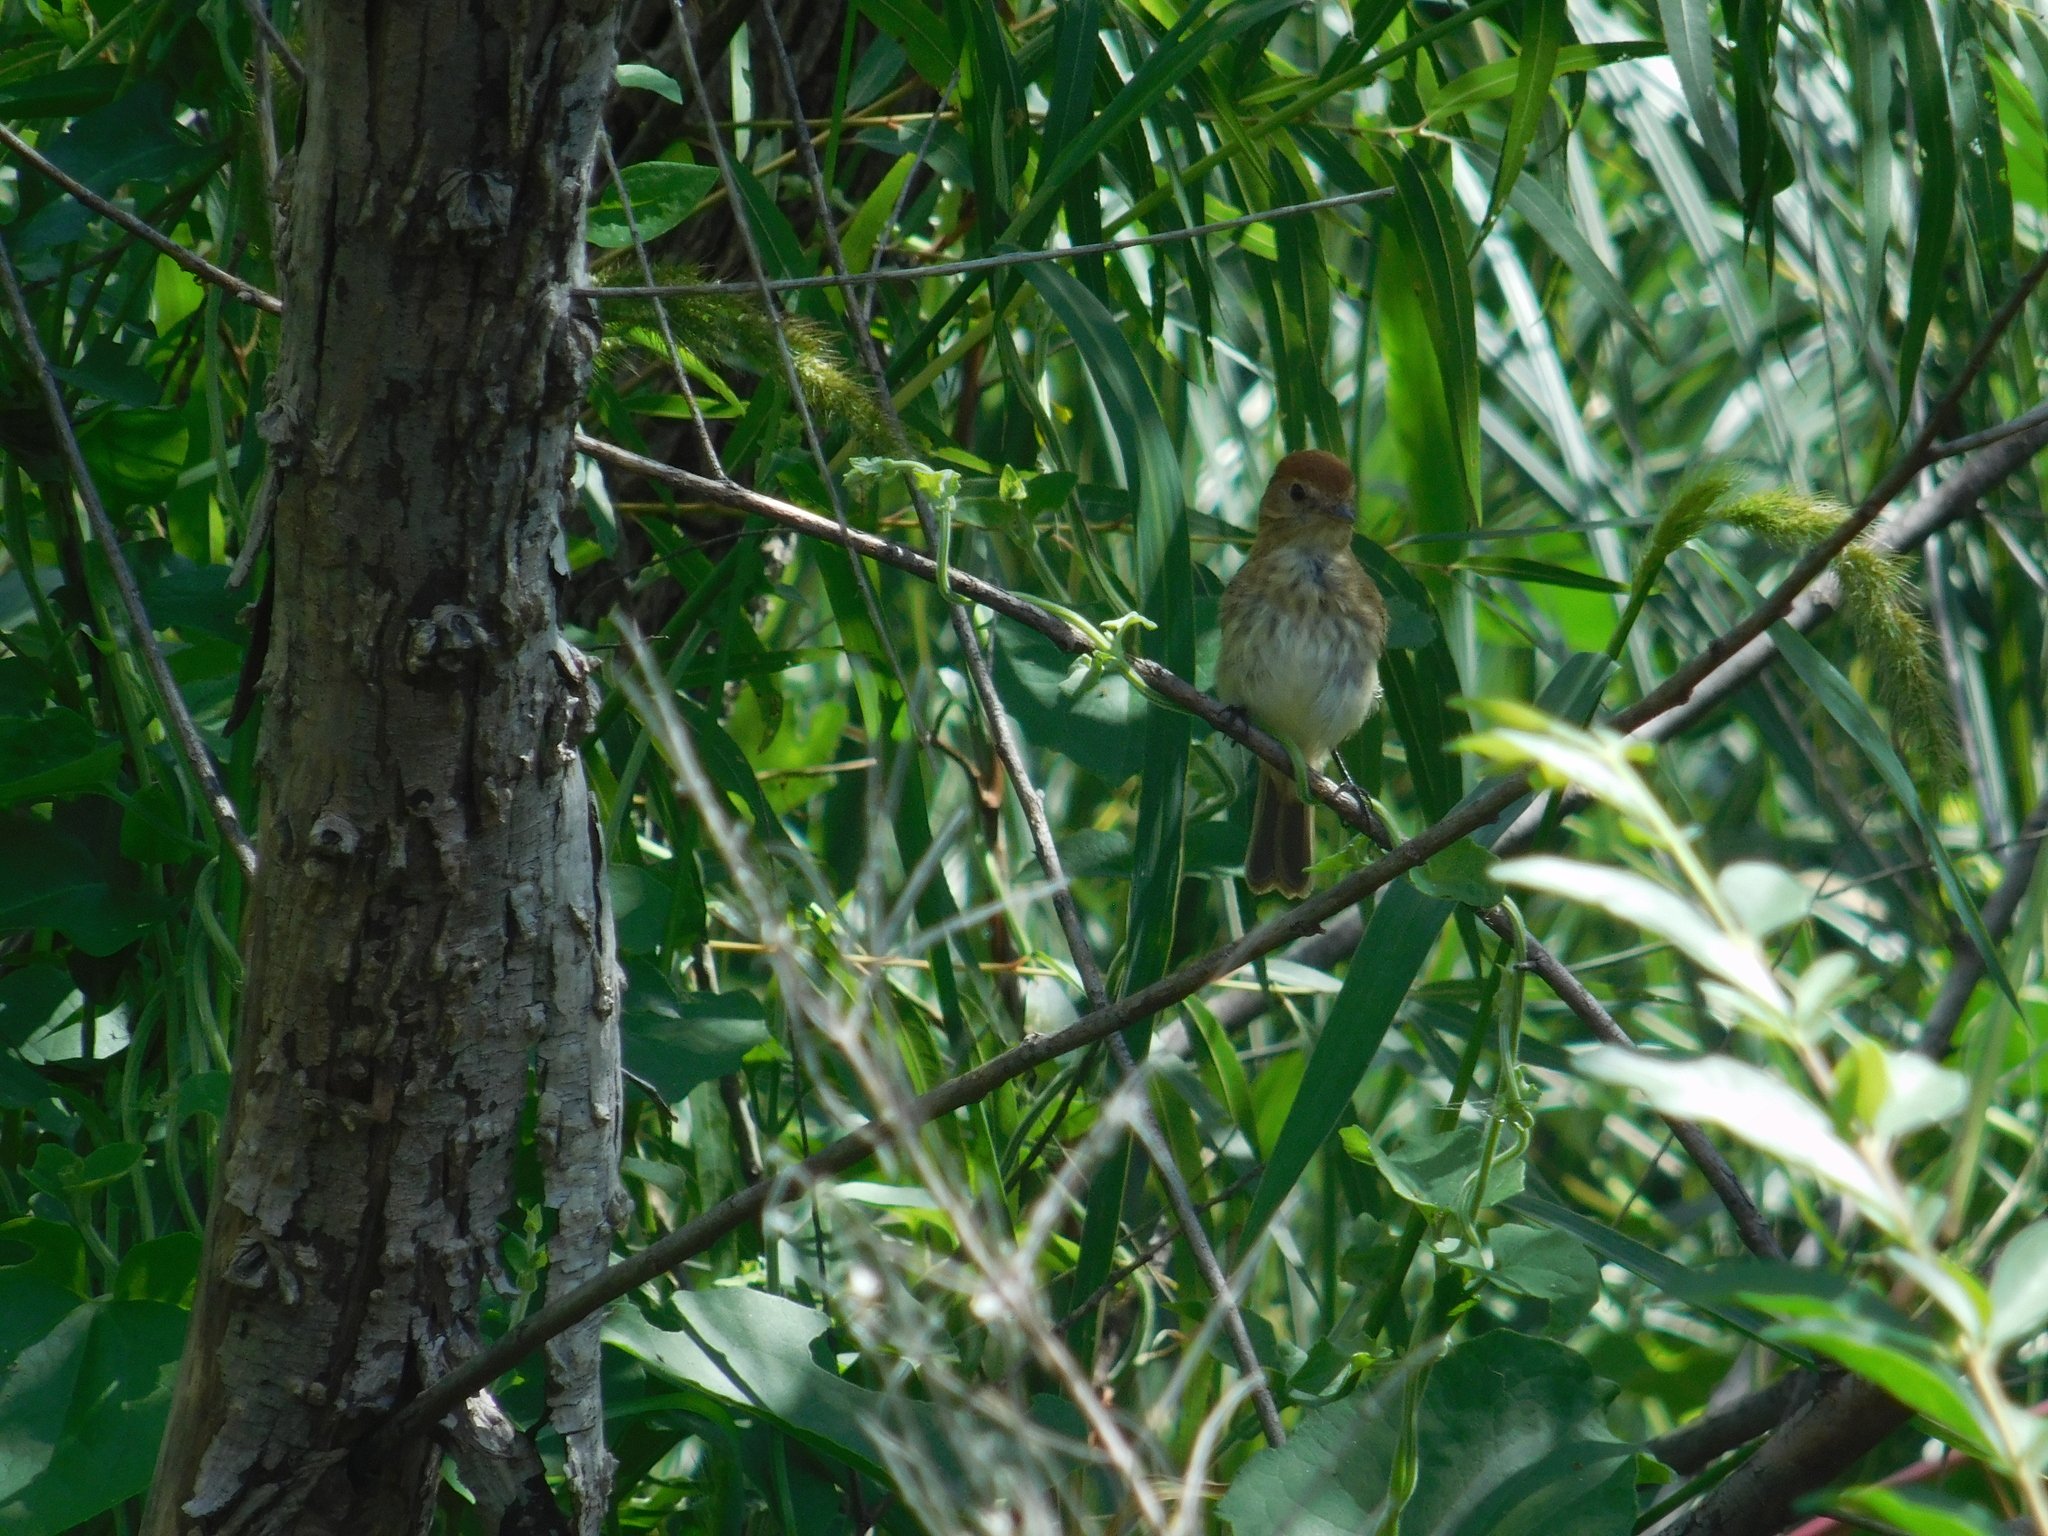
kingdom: Animalia
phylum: Chordata
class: Aves
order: Passeriformes
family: Tyrannidae
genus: Myiophobus
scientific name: Myiophobus fasciatus
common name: Bran-colored flycatcher
